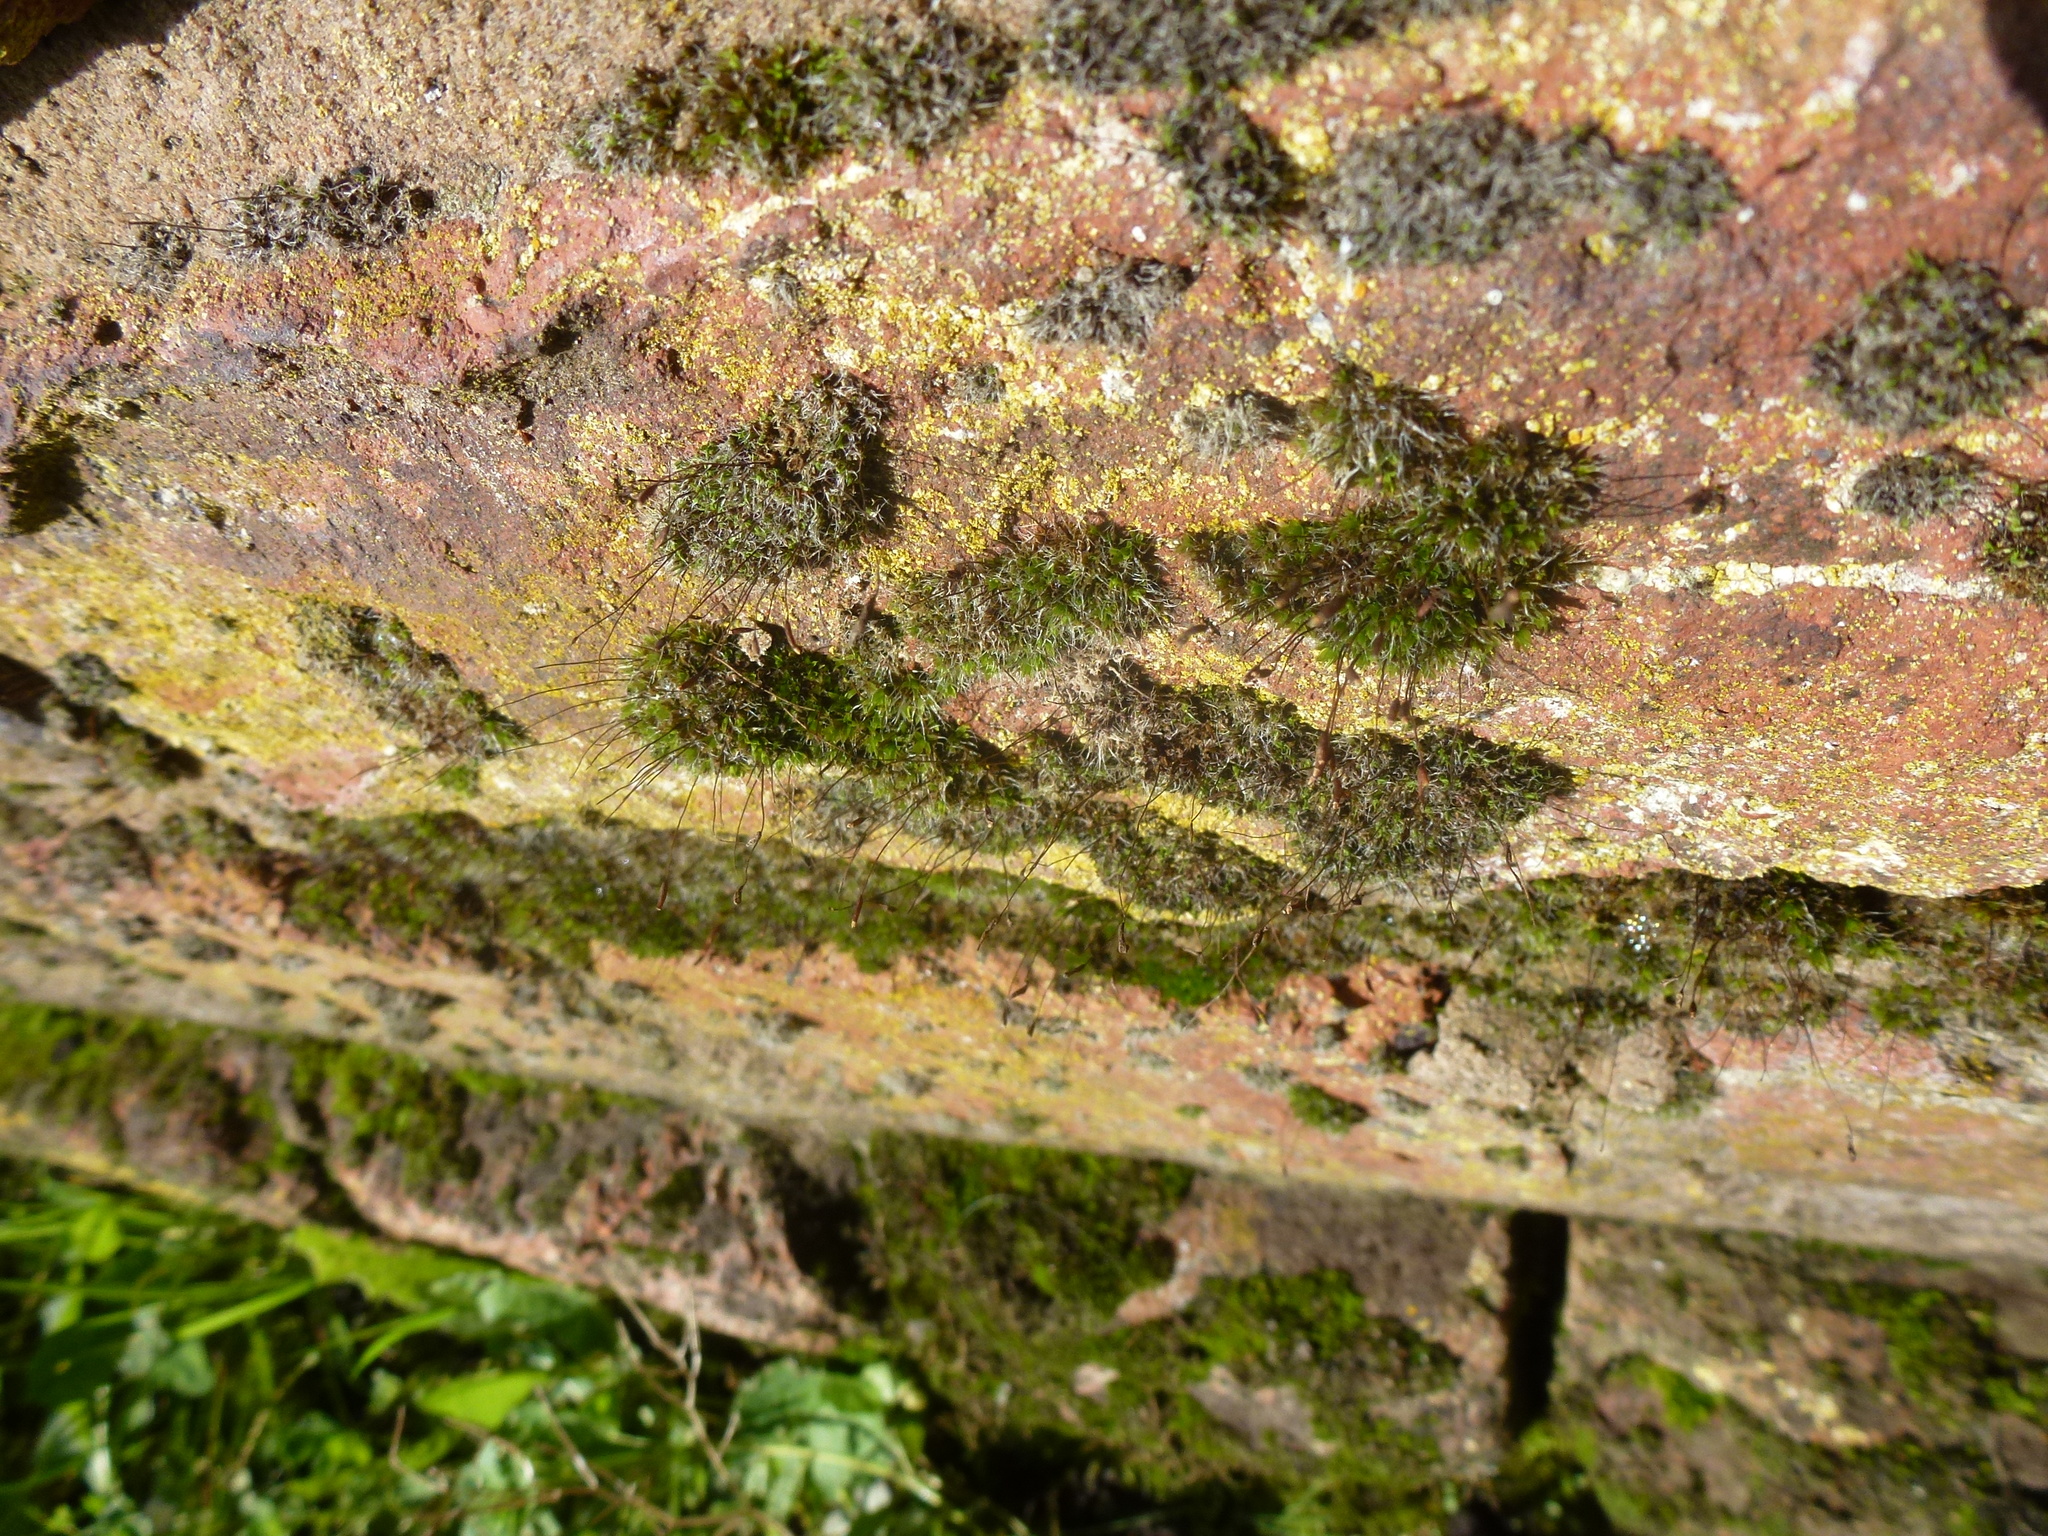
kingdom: Plantae
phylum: Bryophyta
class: Bryopsida
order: Grimmiales
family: Grimmiaceae
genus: Grimmia
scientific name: Grimmia pulvinata
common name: Grey-cushioned grimmia
